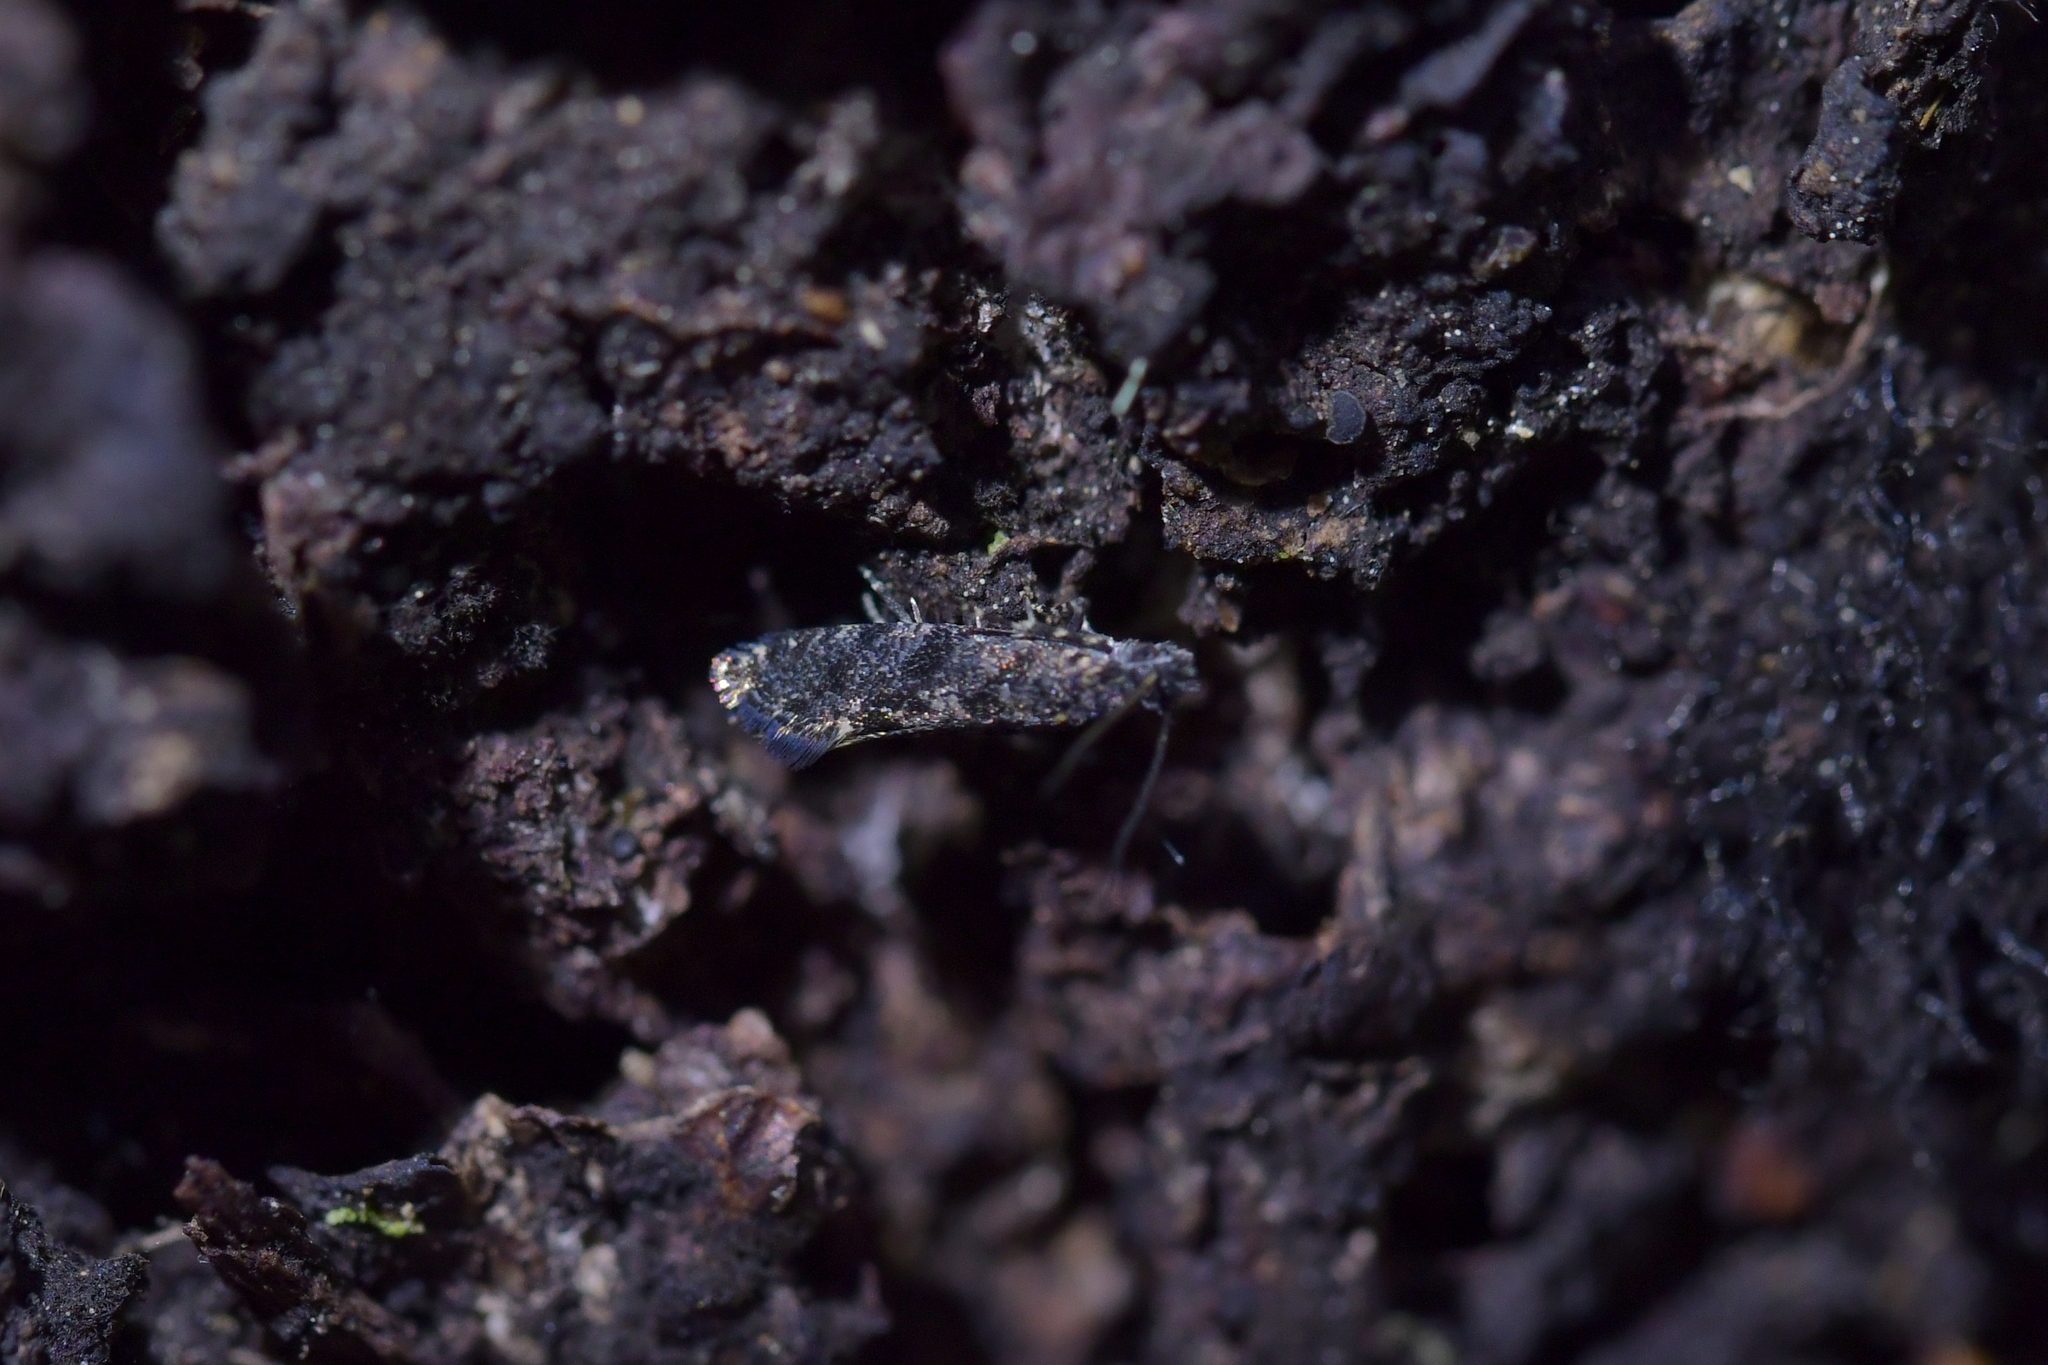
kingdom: Animalia
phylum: Arthropoda
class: Insecta
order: Lepidoptera
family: Tineidae
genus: Tinea
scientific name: Tinea fagicola
